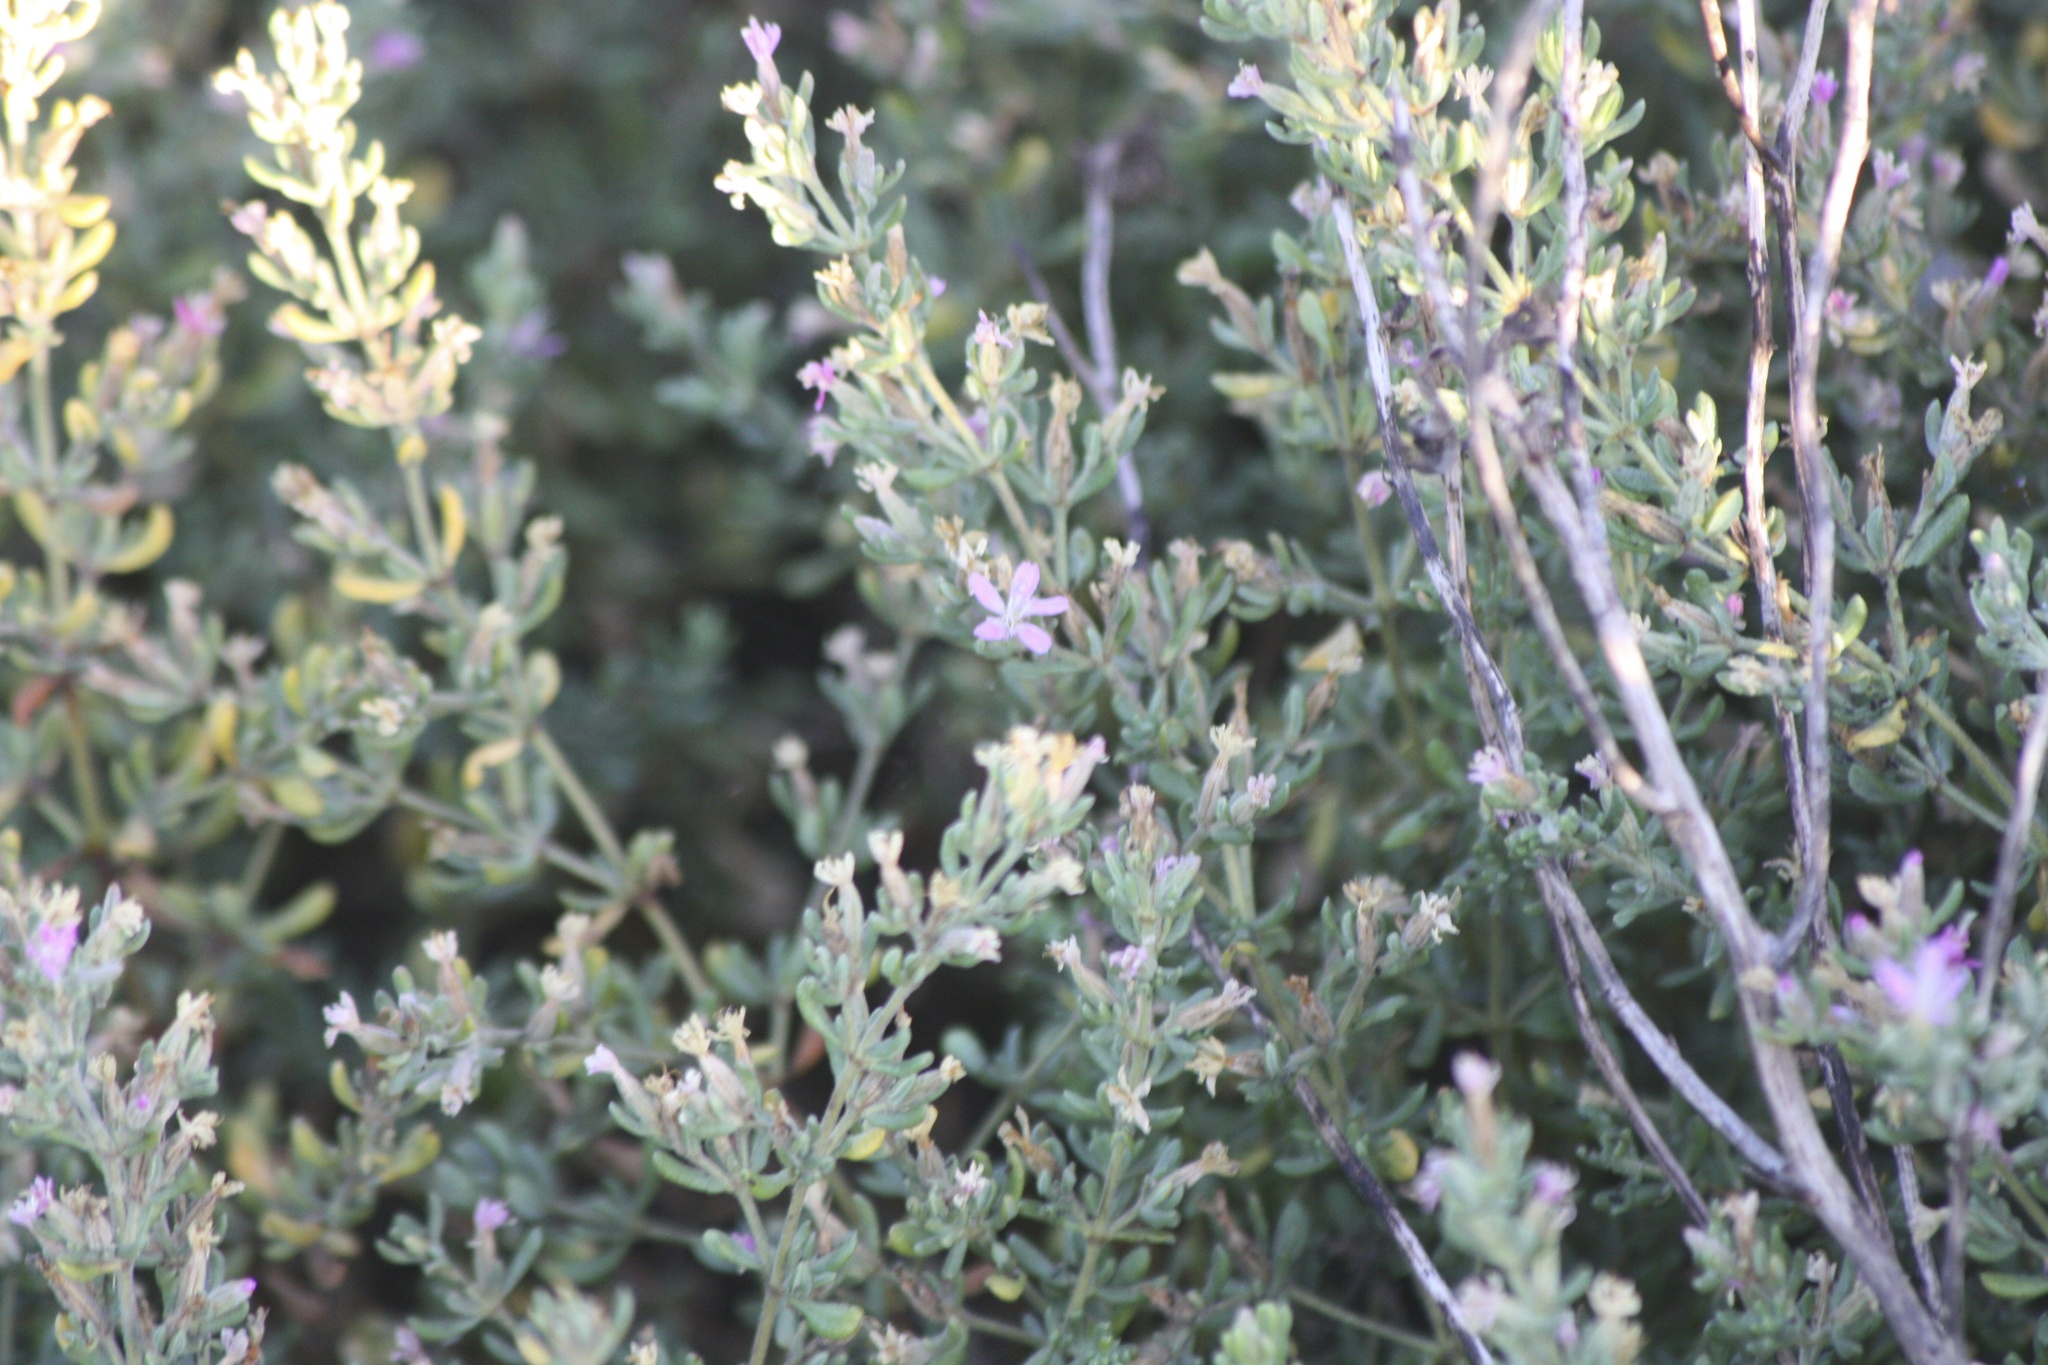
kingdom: Plantae
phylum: Tracheophyta
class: Magnoliopsida
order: Caryophyllales
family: Frankeniaceae
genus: Frankenia
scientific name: Frankenia salina
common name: Alkali seaheath
